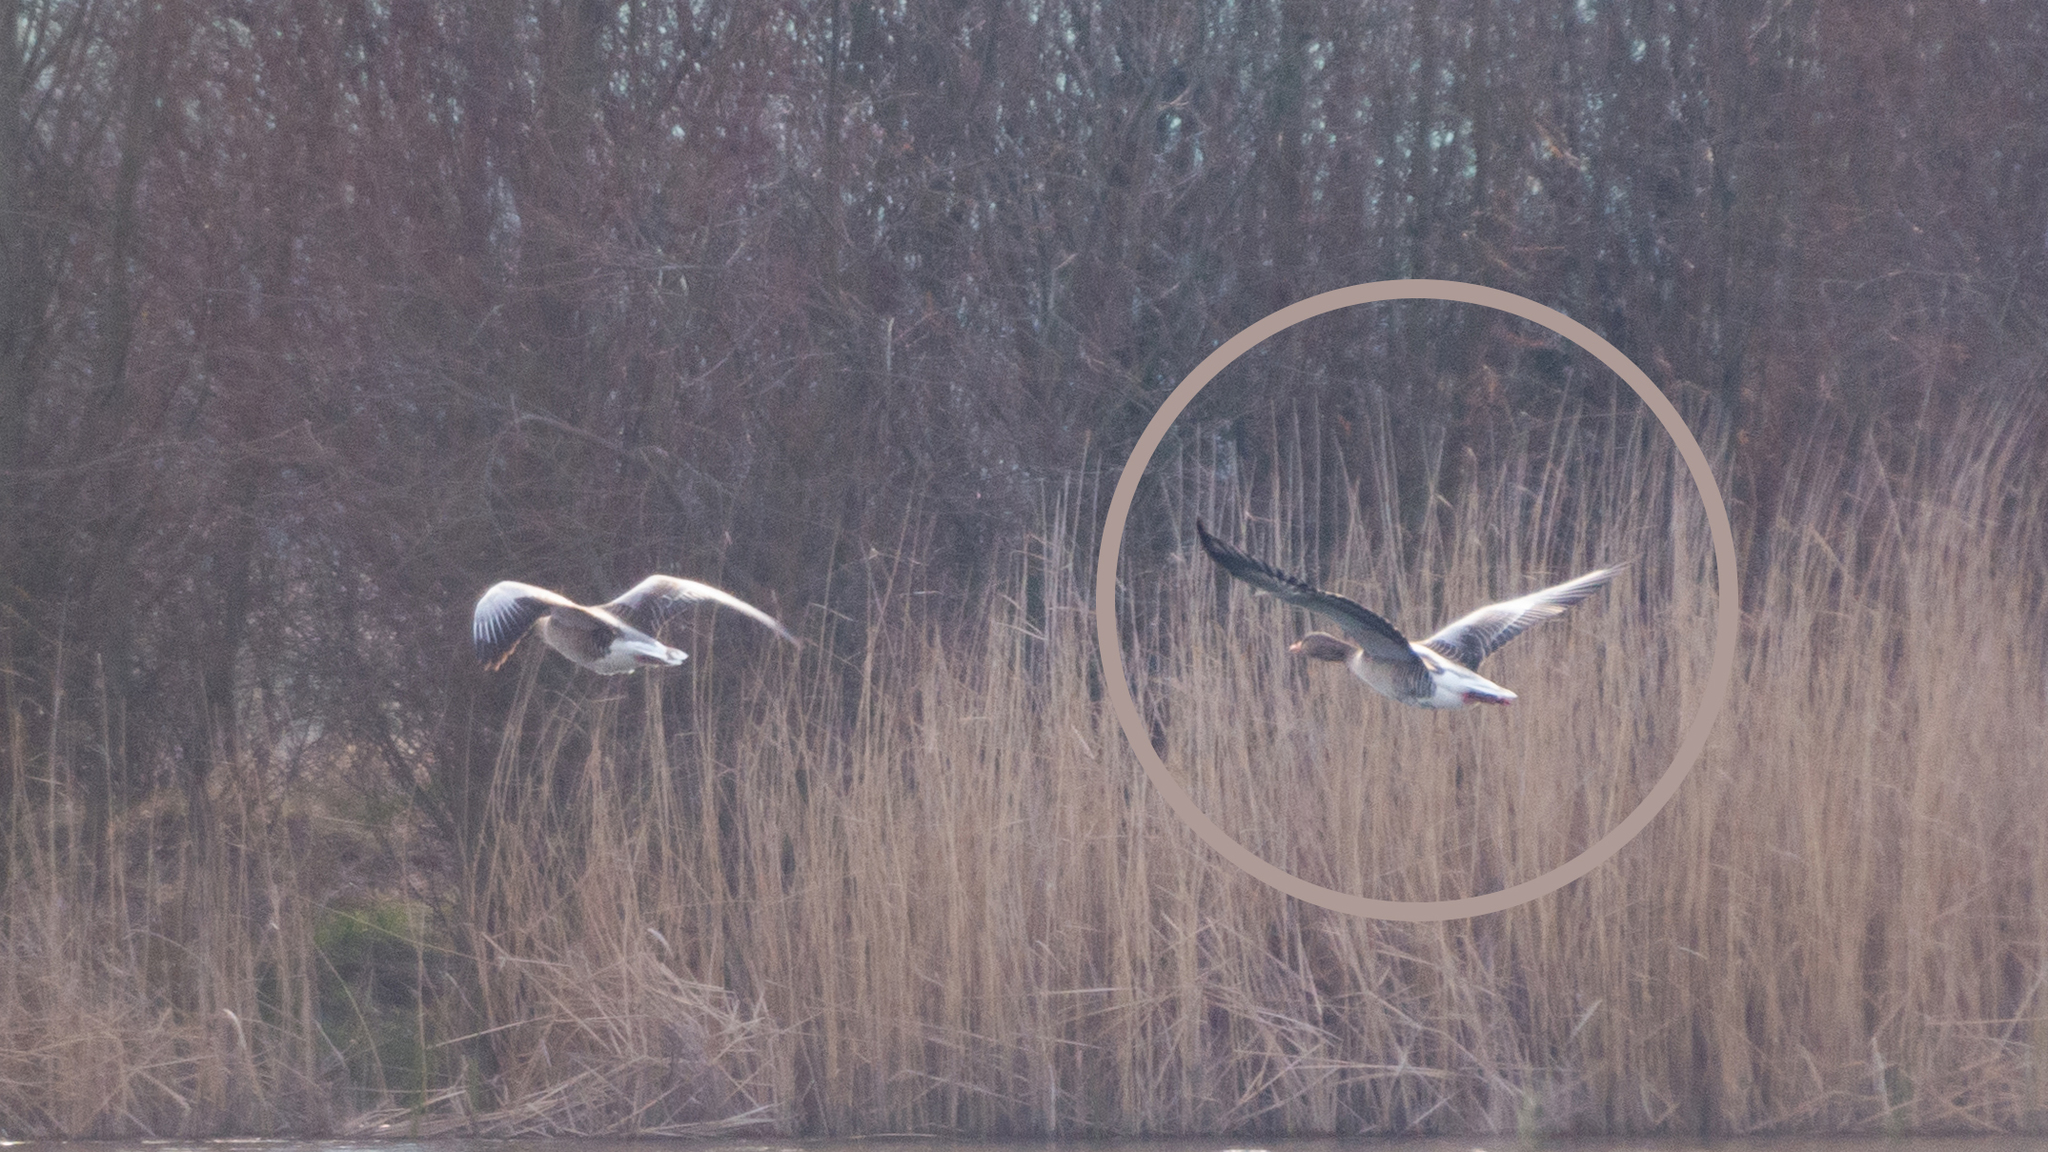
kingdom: Animalia
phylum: Chordata
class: Aves
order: Anseriformes
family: Anatidae
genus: Anser
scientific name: Anser anser
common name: Greylag goose
